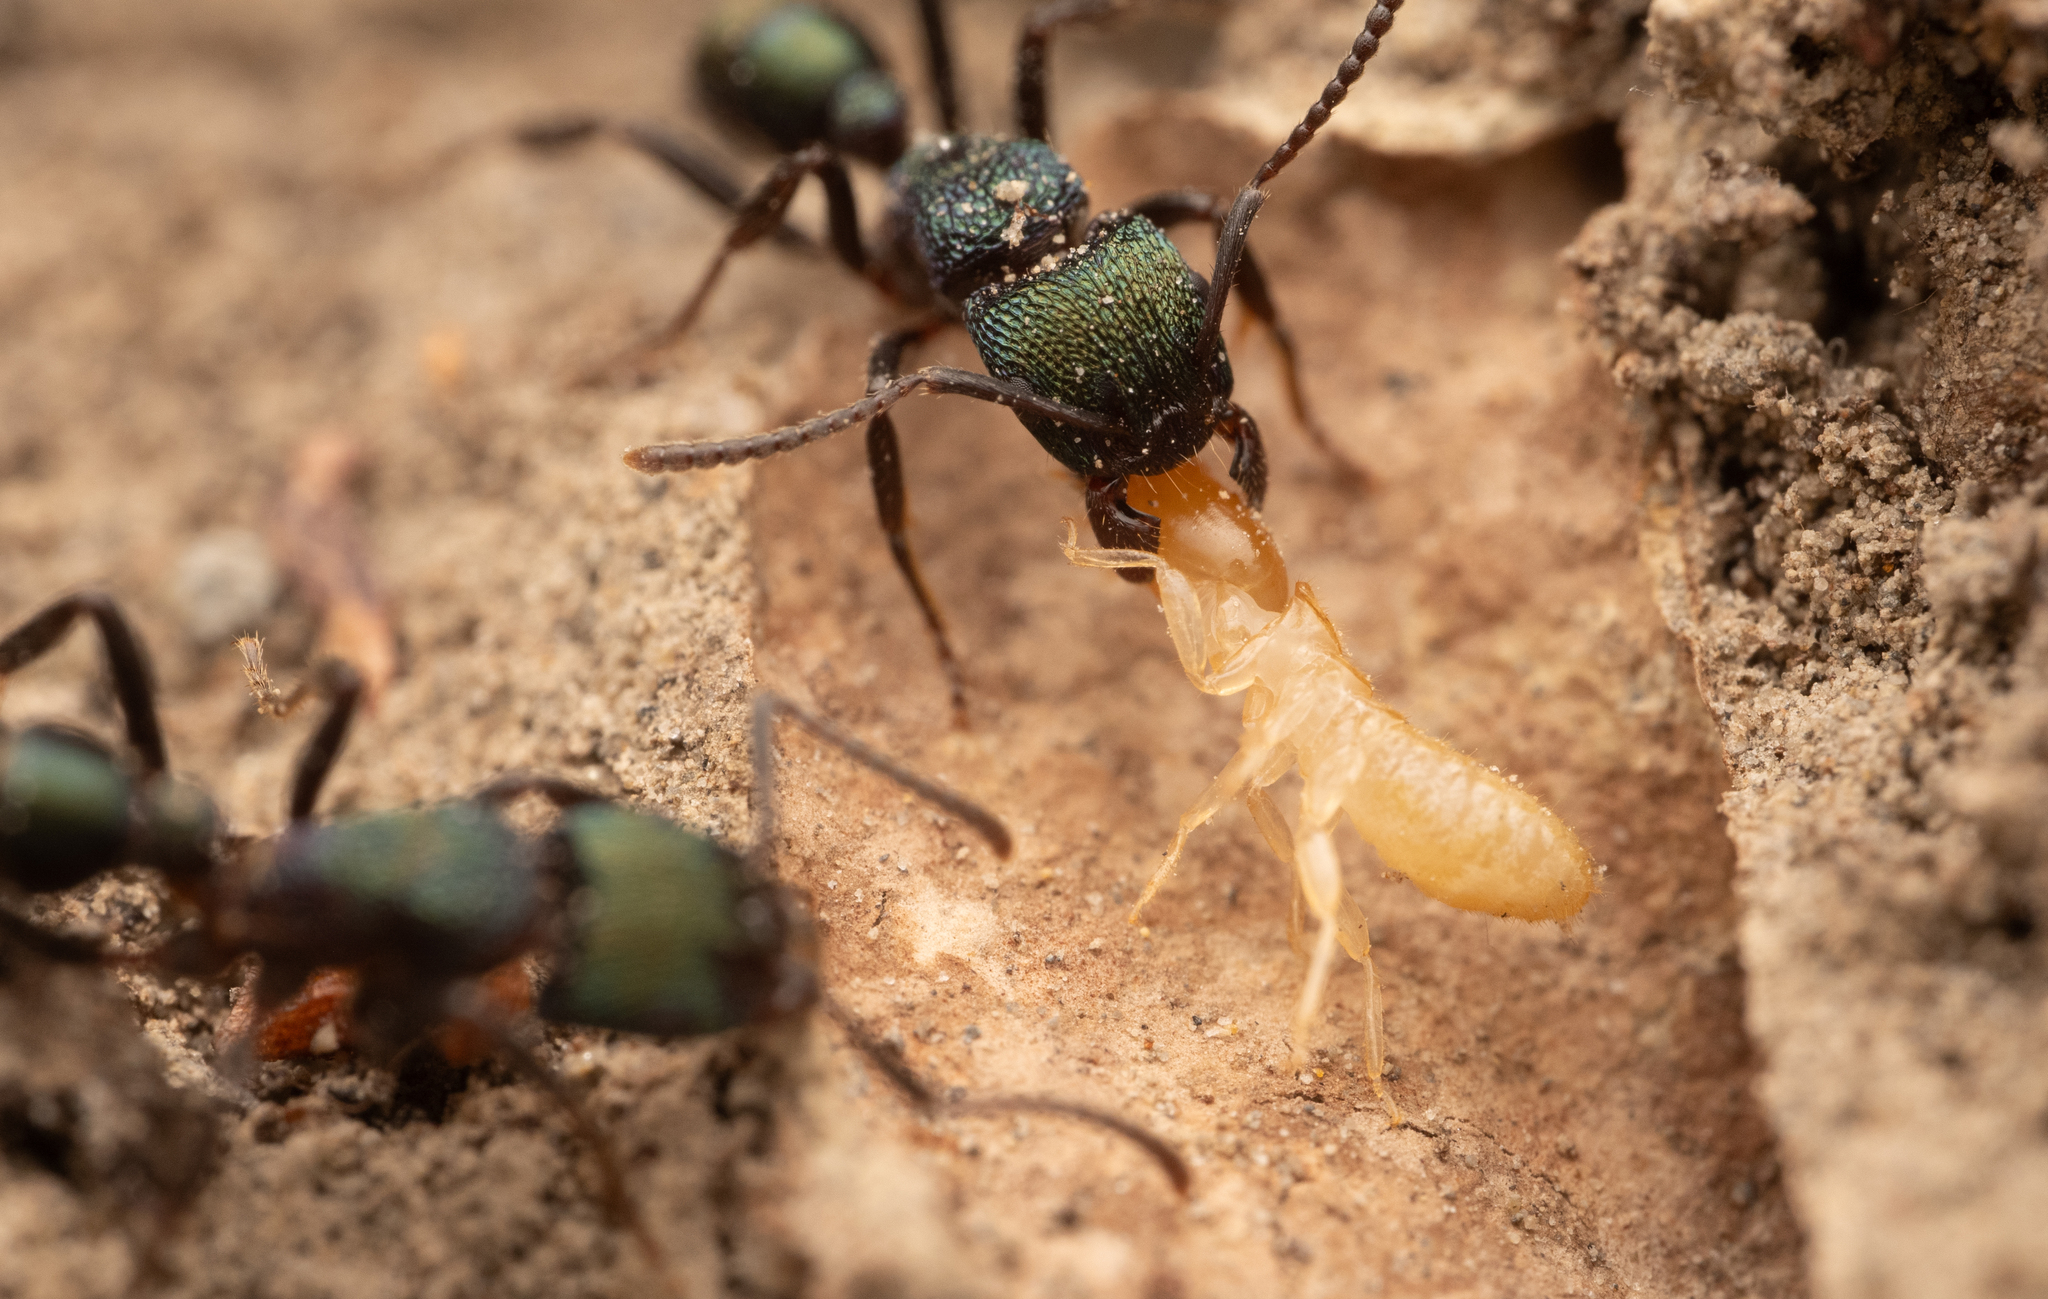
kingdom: Animalia
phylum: Arthropoda
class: Insecta
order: Hymenoptera
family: Formicidae
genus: Rhytidoponera
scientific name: Rhytidoponera metallica
